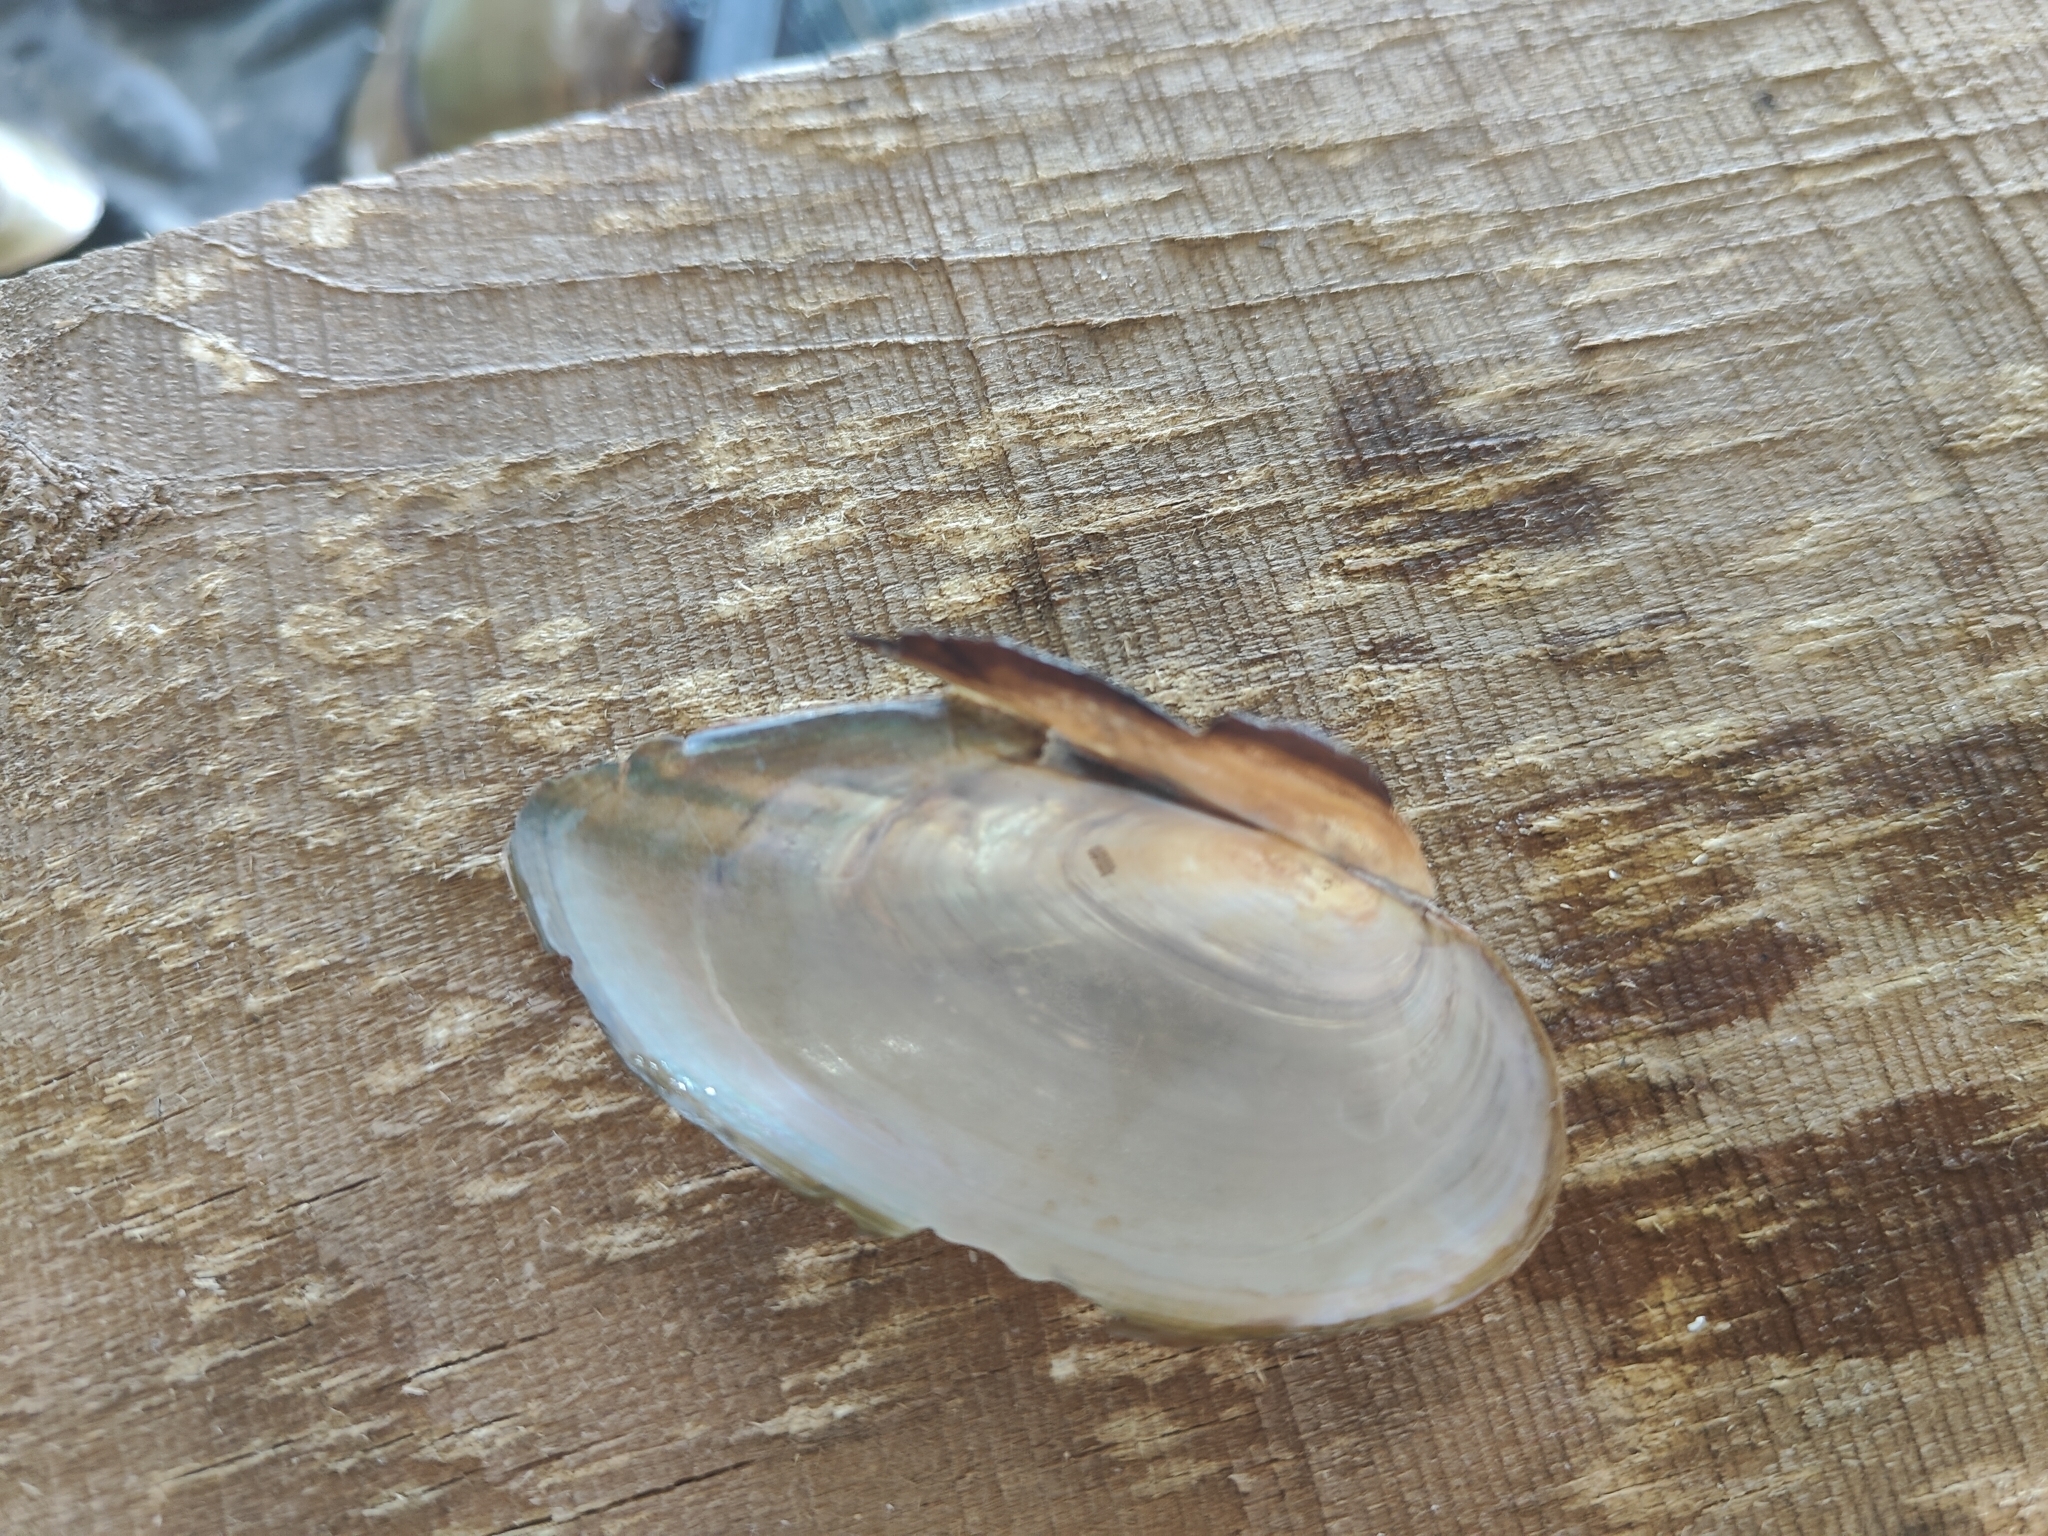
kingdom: Animalia
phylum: Mollusca
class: Bivalvia
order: Unionida
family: Unionidae
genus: Utterbackia
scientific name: Utterbackia imbecillis
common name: Paper pondshell
